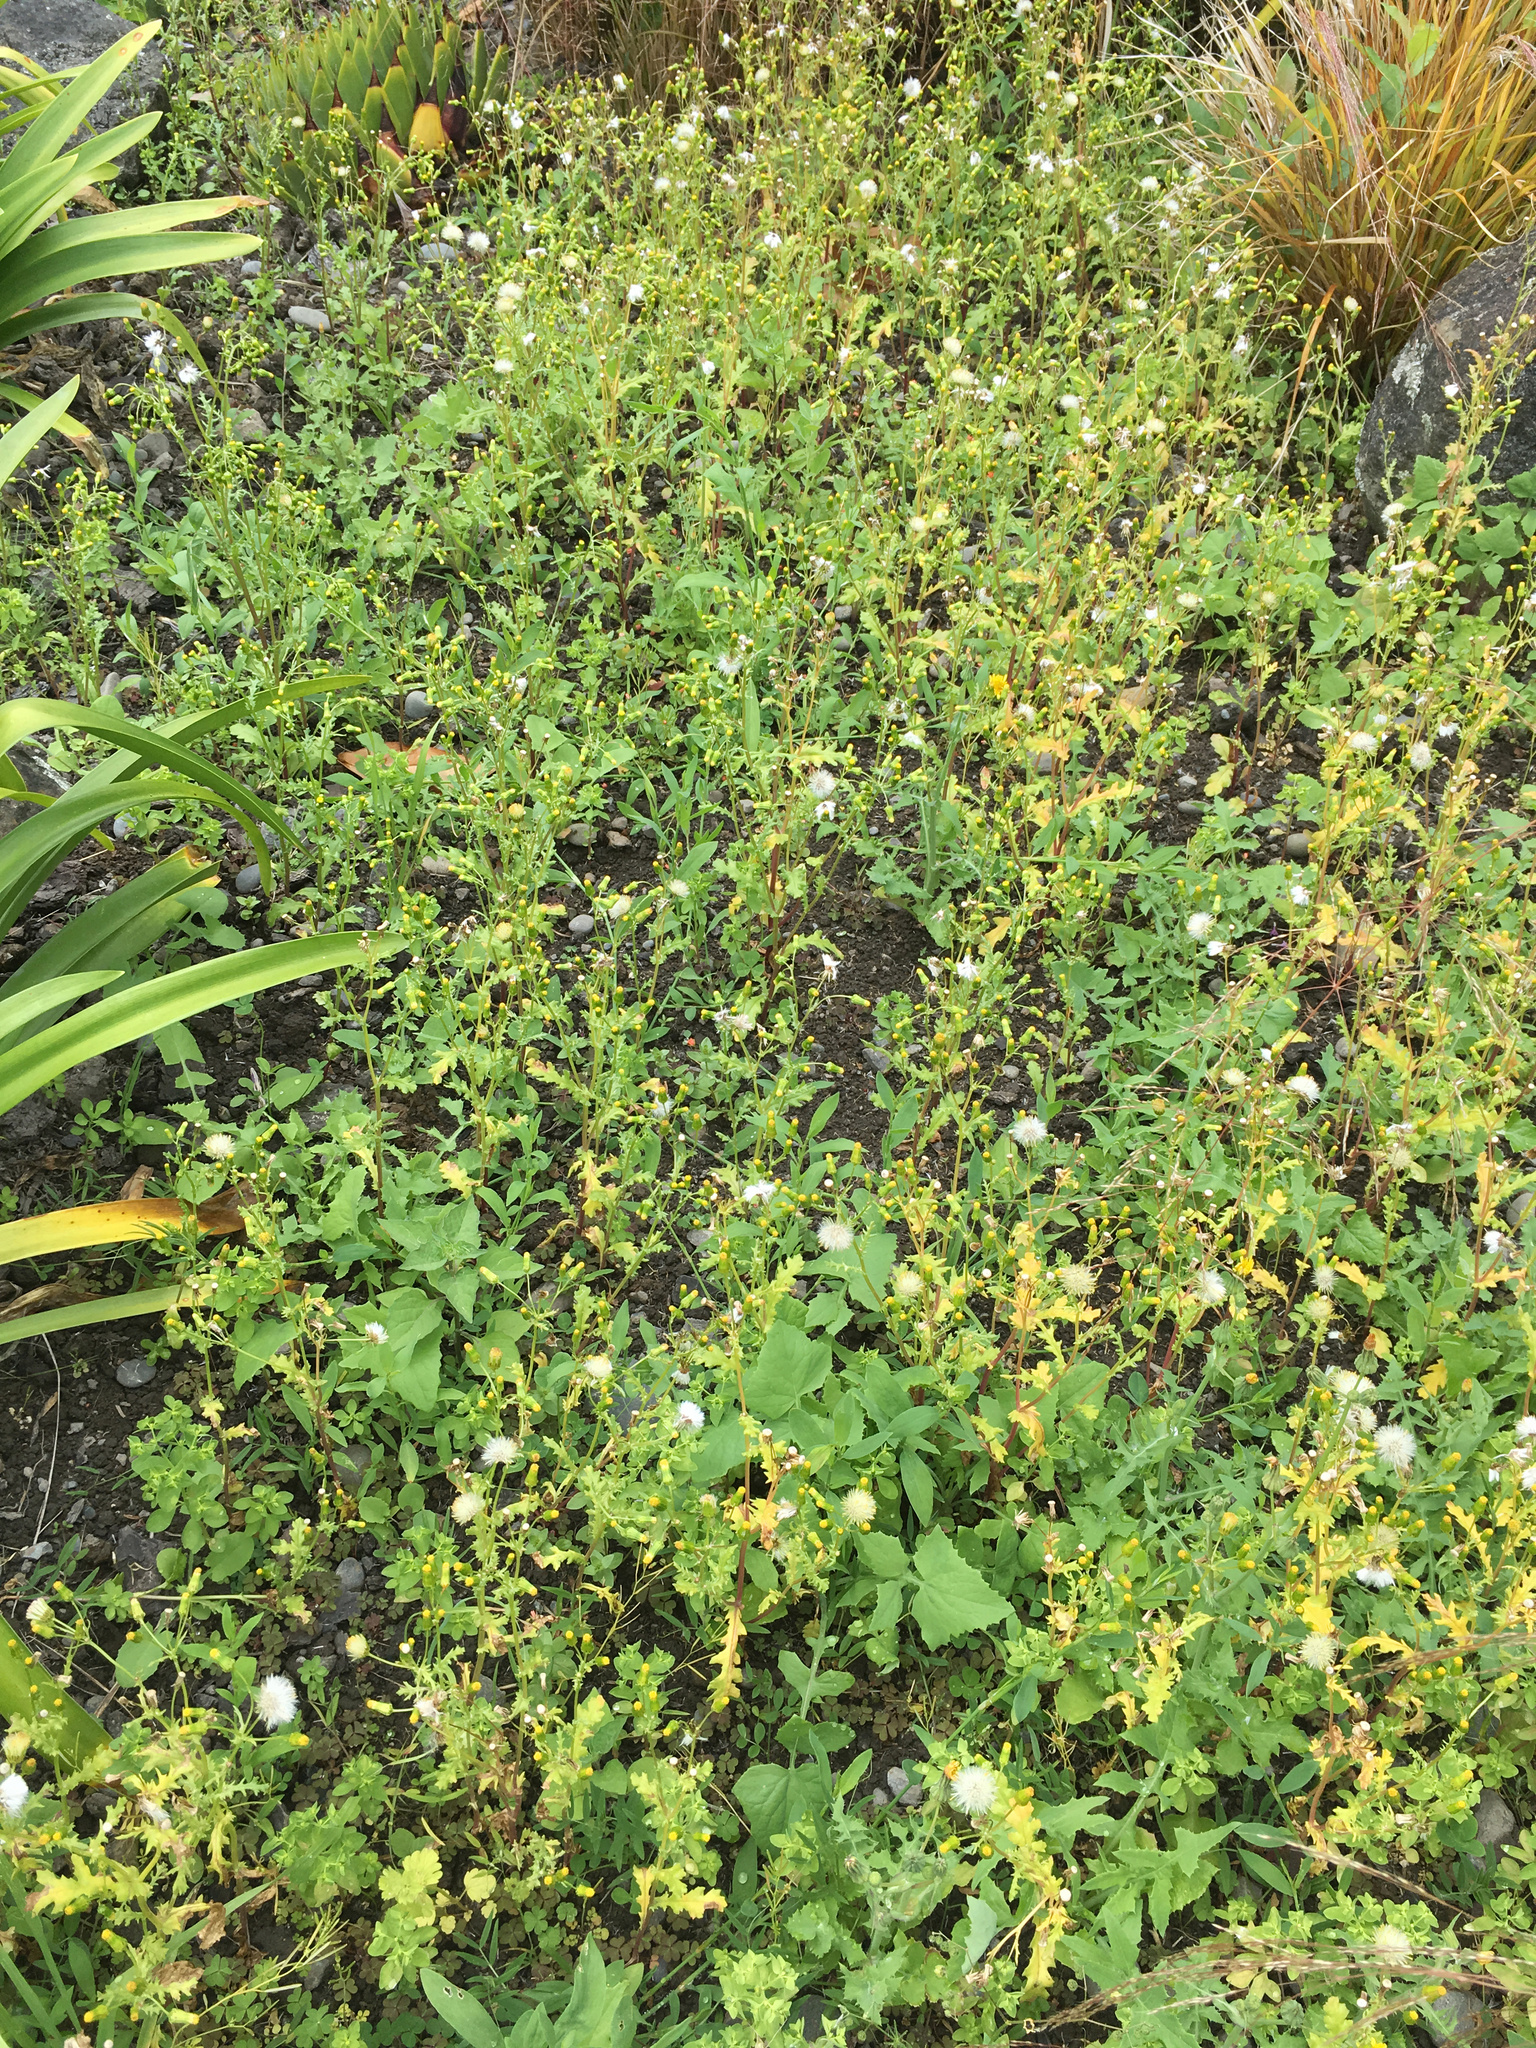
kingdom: Plantae
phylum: Tracheophyta
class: Magnoliopsida
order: Asterales
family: Asteraceae
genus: Senecio
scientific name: Senecio vulgaris
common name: Old-man-in-the-spring
